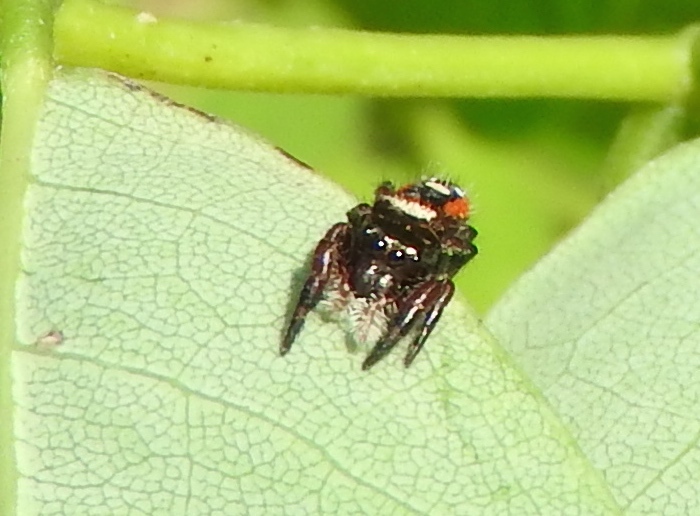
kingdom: Animalia
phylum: Arthropoda
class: Arachnida
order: Araneae
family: Salticidae
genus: Phidippus
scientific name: Phidippus californicus
